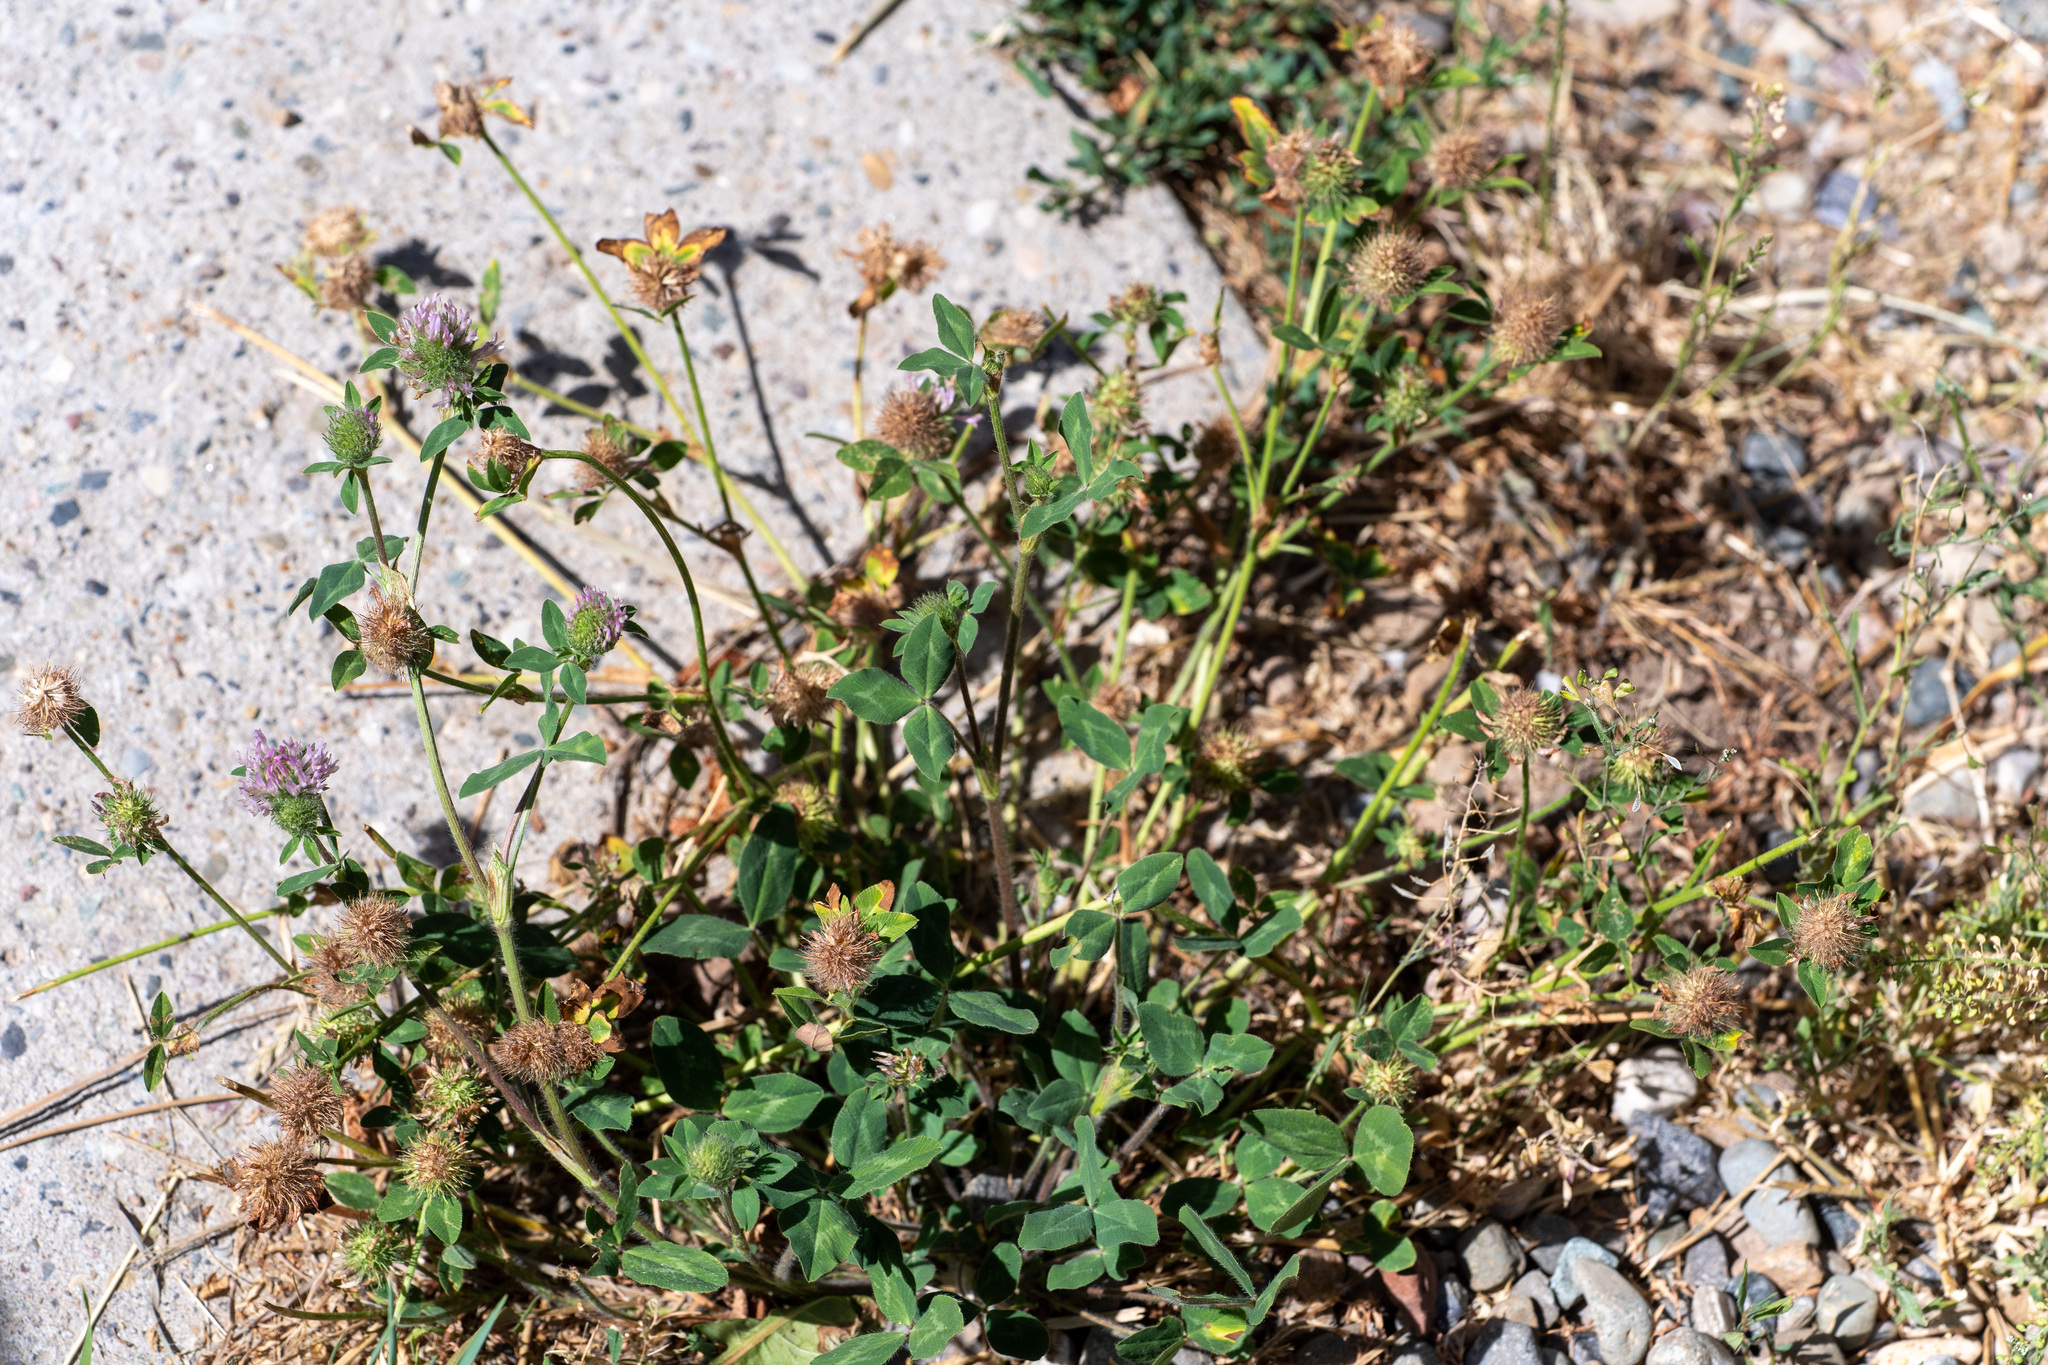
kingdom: Plantae
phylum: Tracheophyta
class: Magnoliopsida
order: Fabales
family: Fabaceae
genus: Trifolium
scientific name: Trifolium pratense
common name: Red clover
